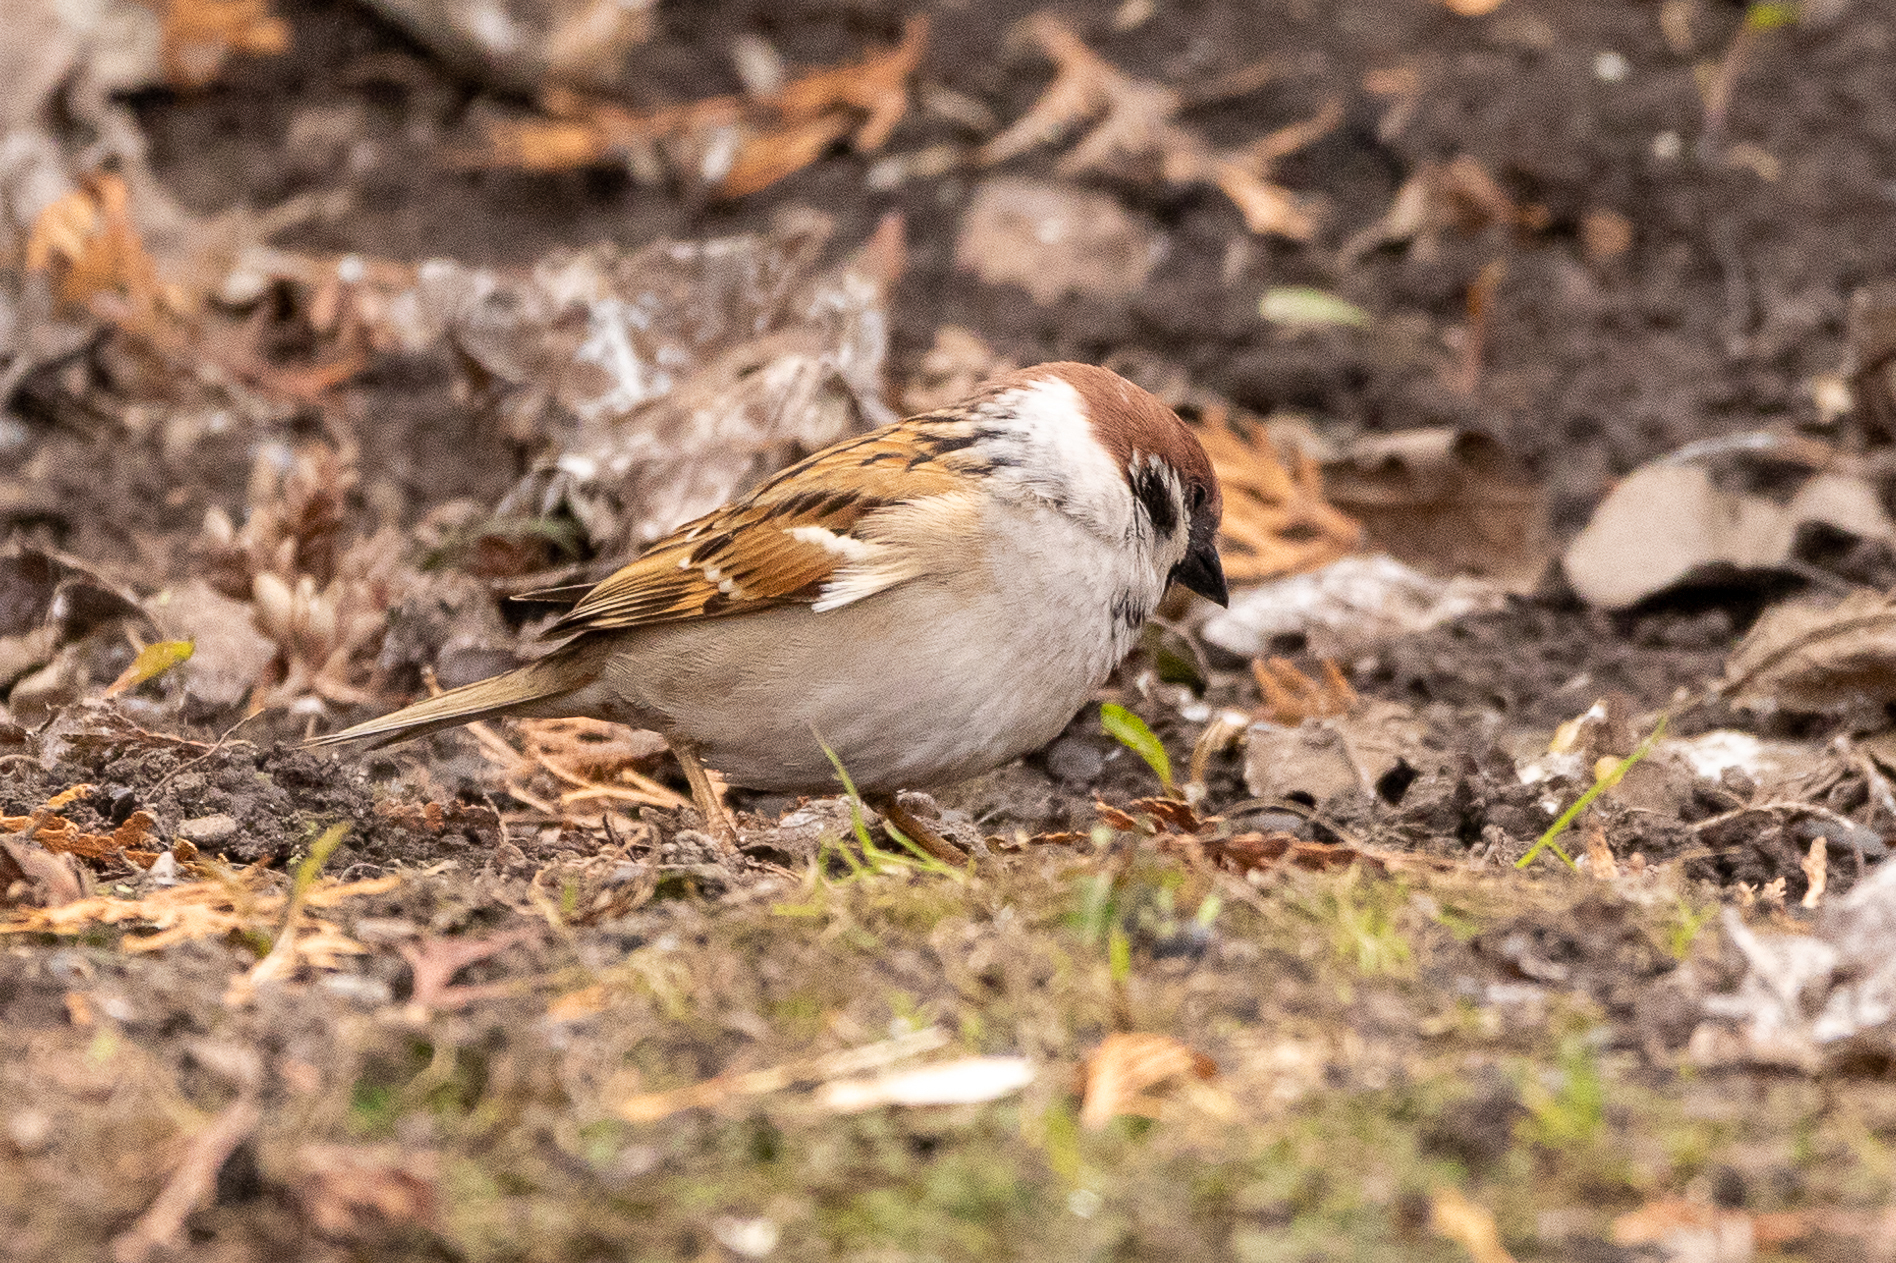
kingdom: Animalia
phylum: Chordata
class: Aves
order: Passeriformes
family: Passeridae
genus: Passer
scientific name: Passer montanus
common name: Eurasian tree sparrow
